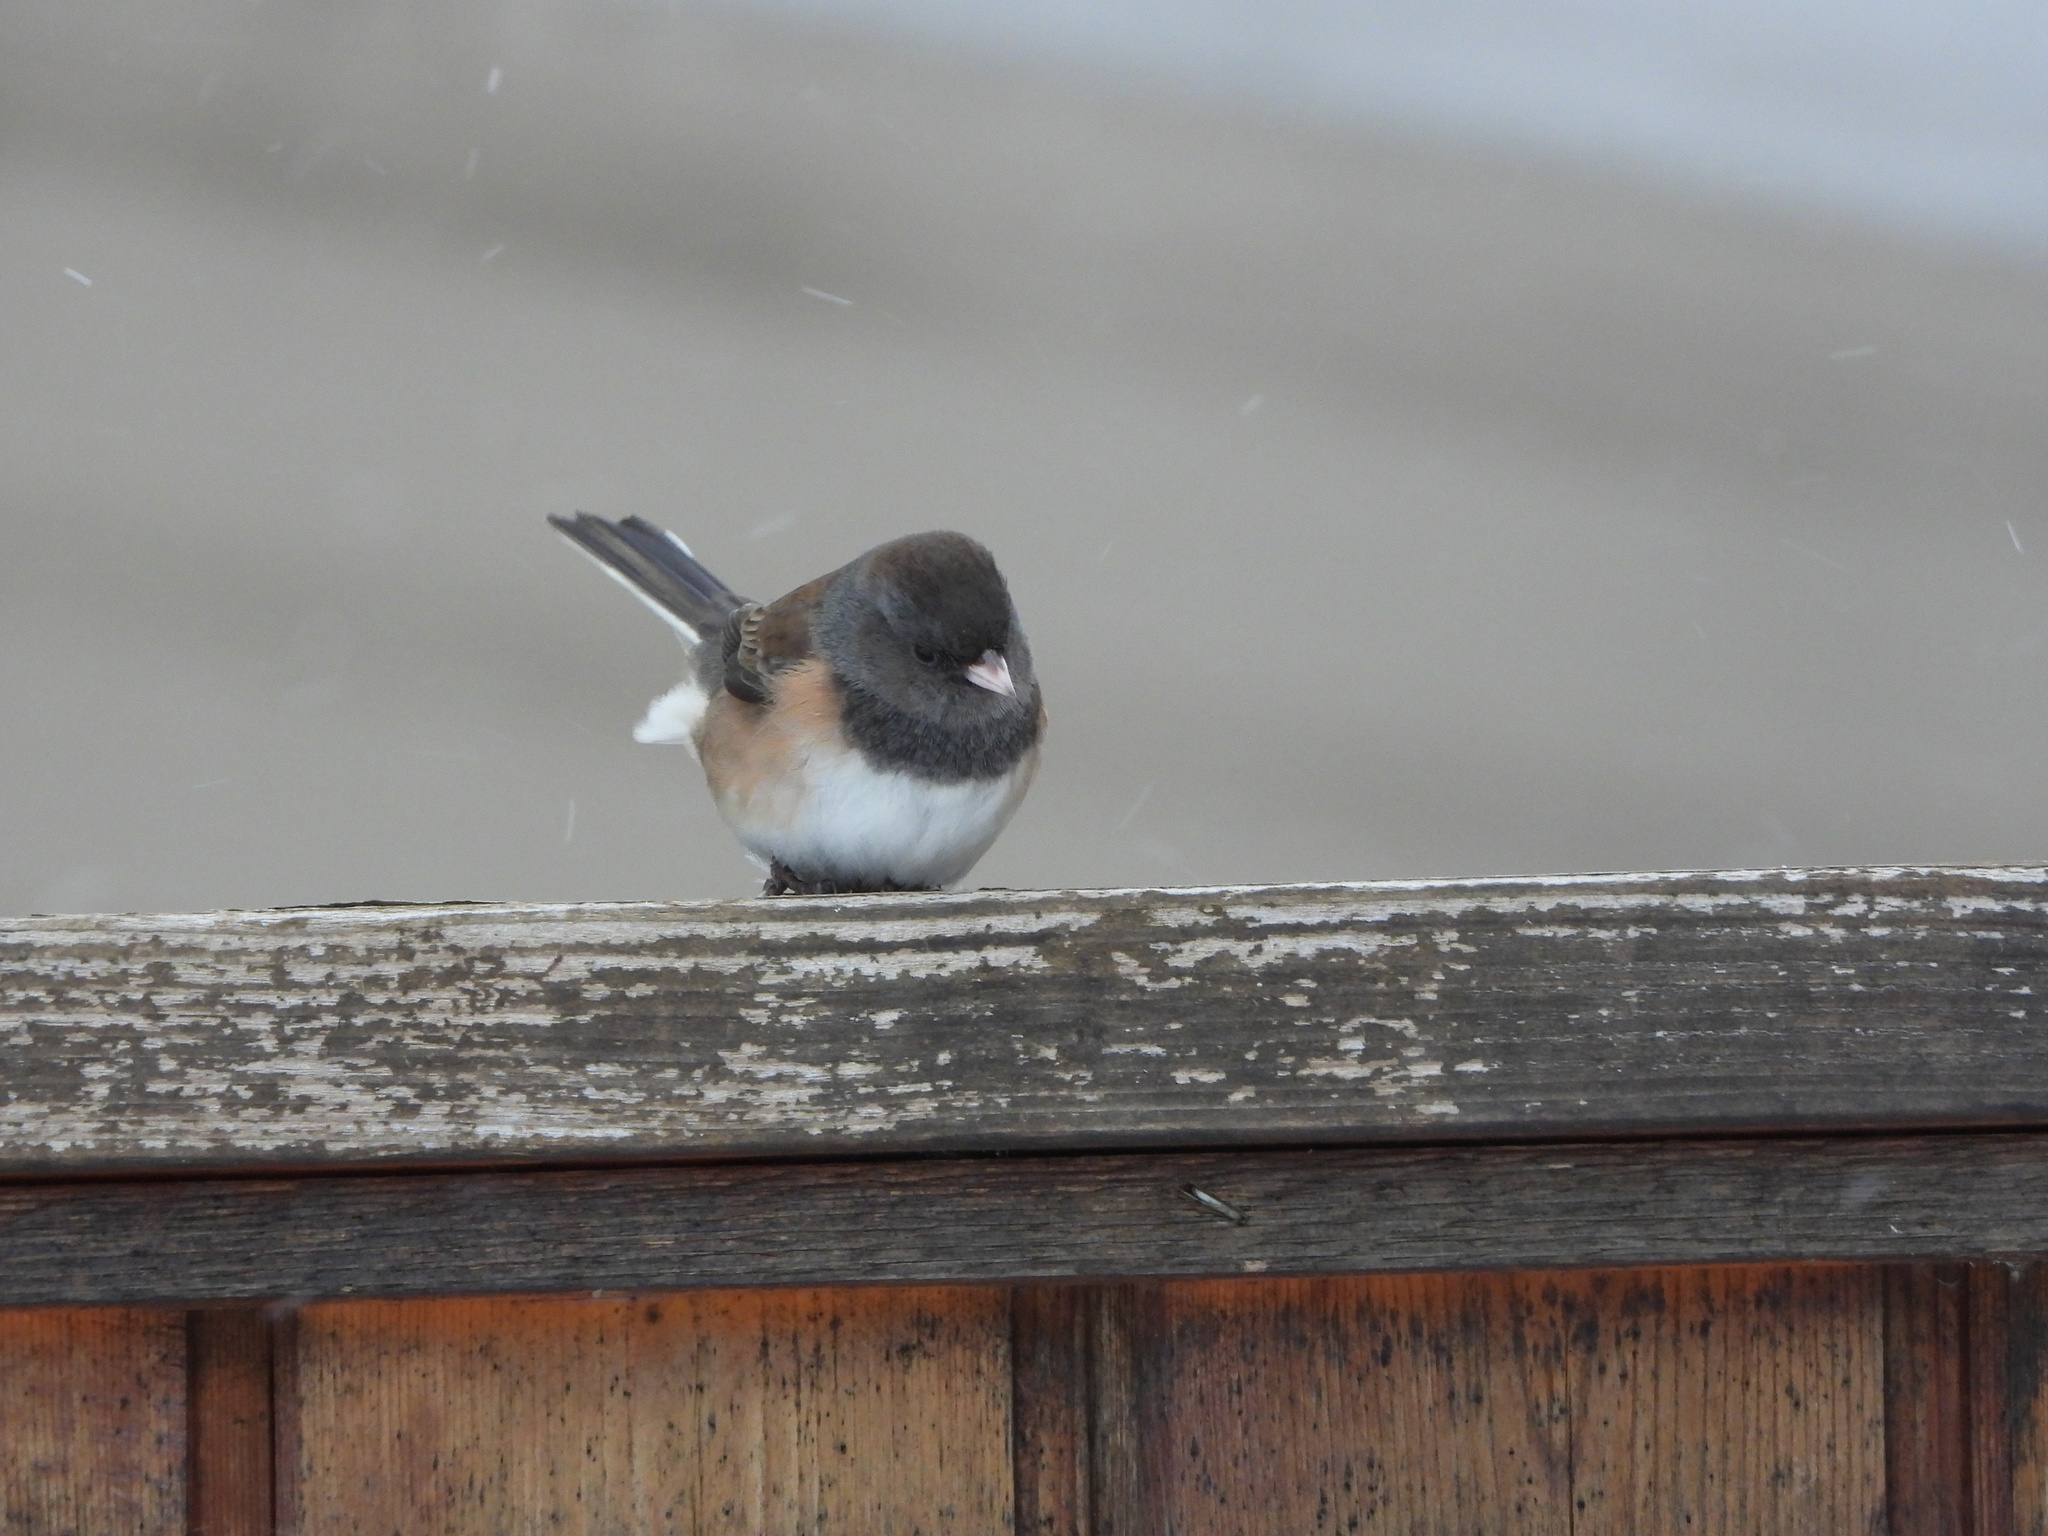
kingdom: Animalia
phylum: Chordata
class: Aves
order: Passeriformes
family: Passerellidae
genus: Junco
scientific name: Junco hyemalis
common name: Dark-eyed junco
